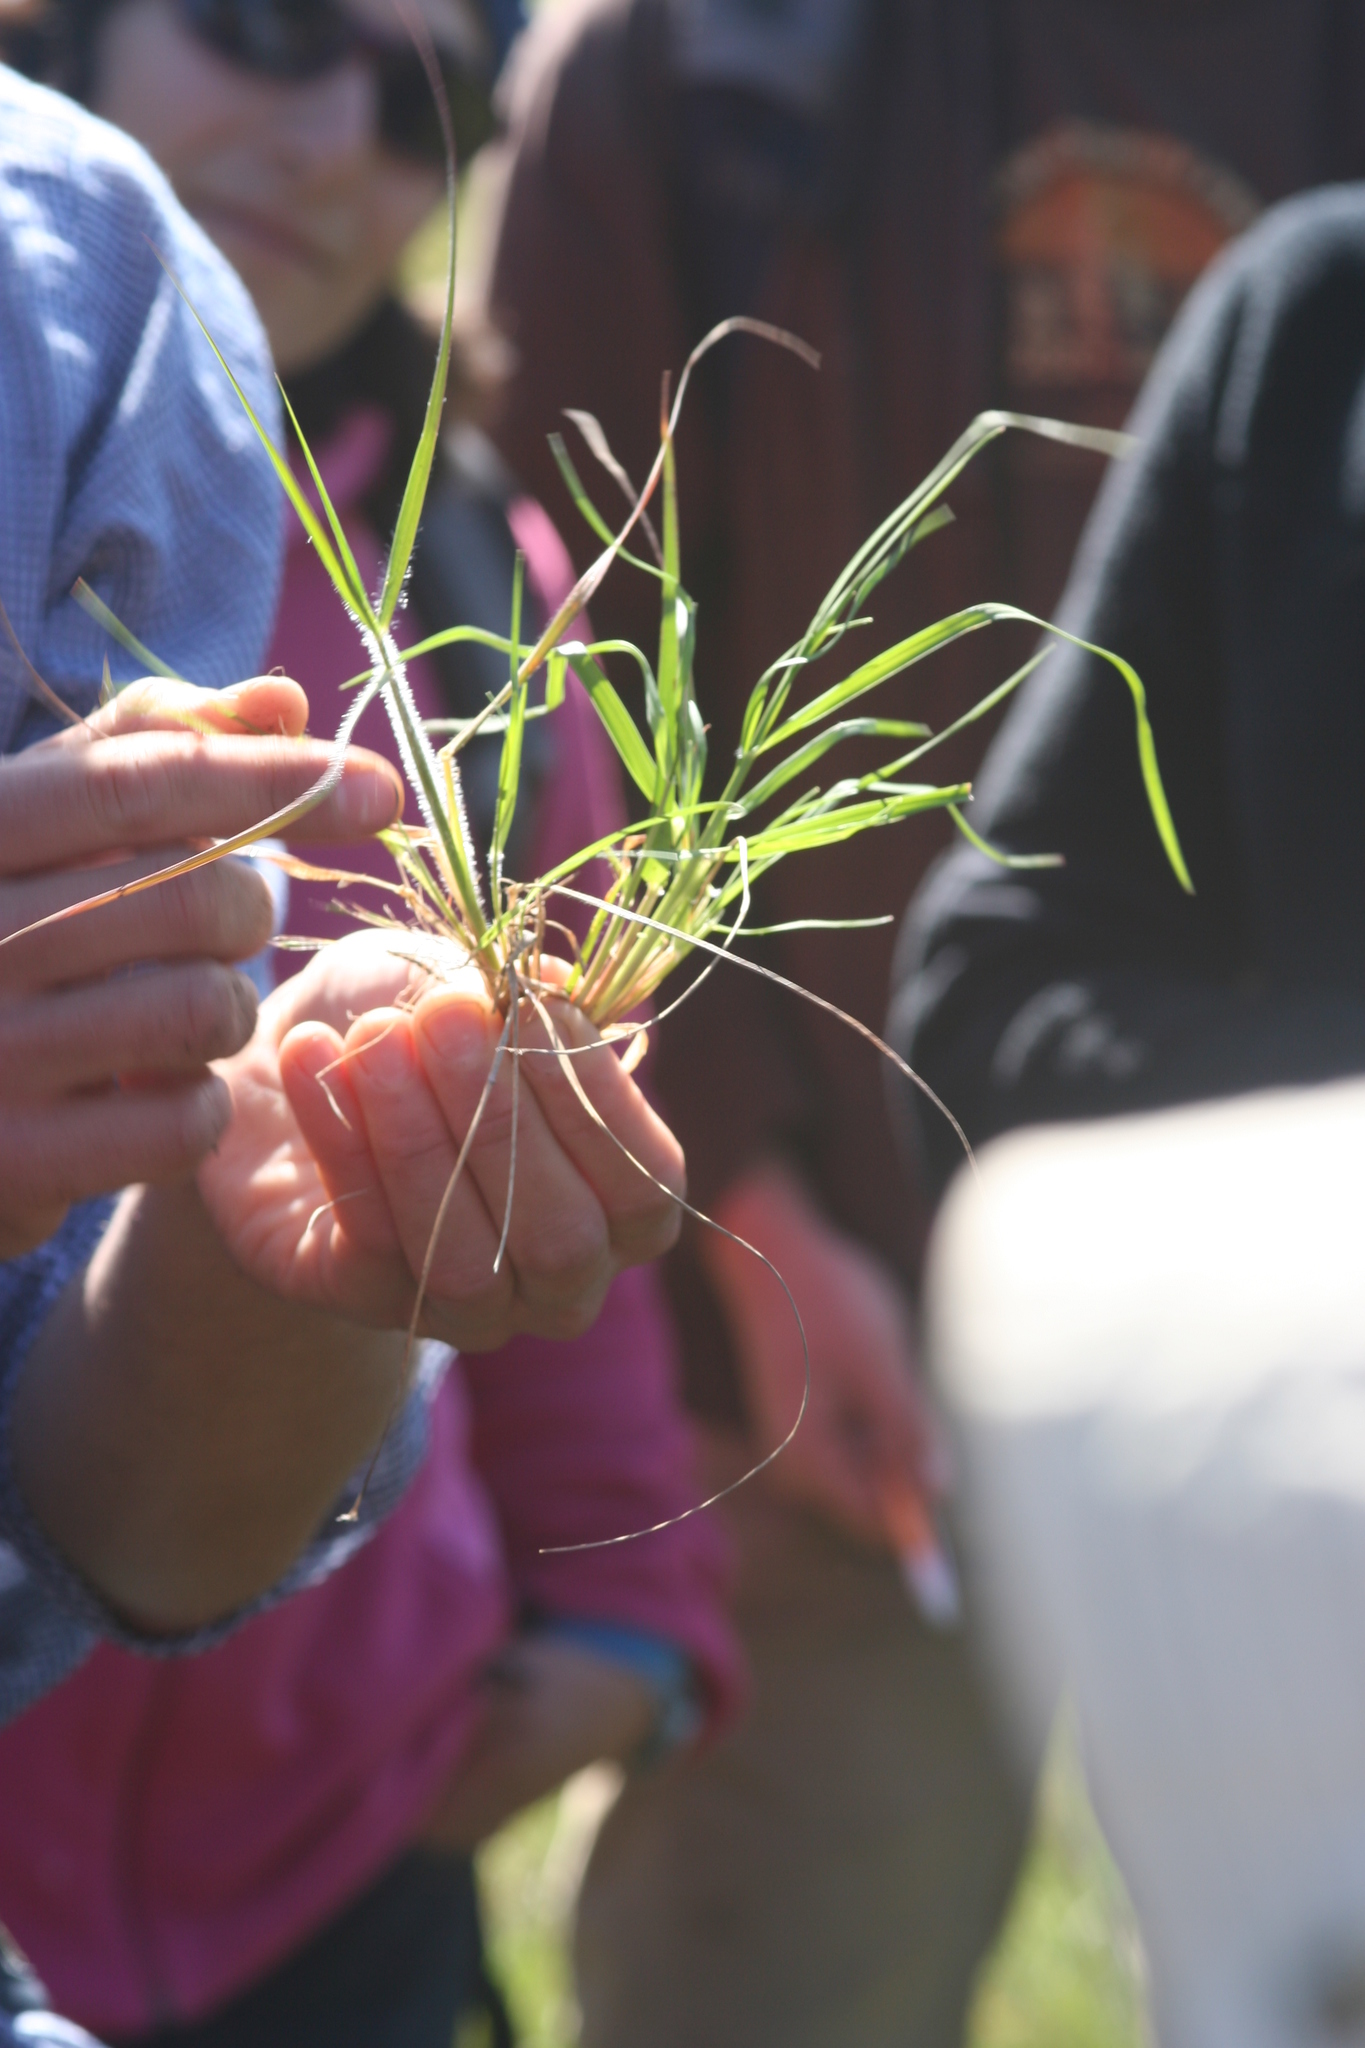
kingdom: Plantae
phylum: Tracheophyta
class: Liliopsida
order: Poales
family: Poaceae
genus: Danthonia
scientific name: Danthonia californica
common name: California oat grass
